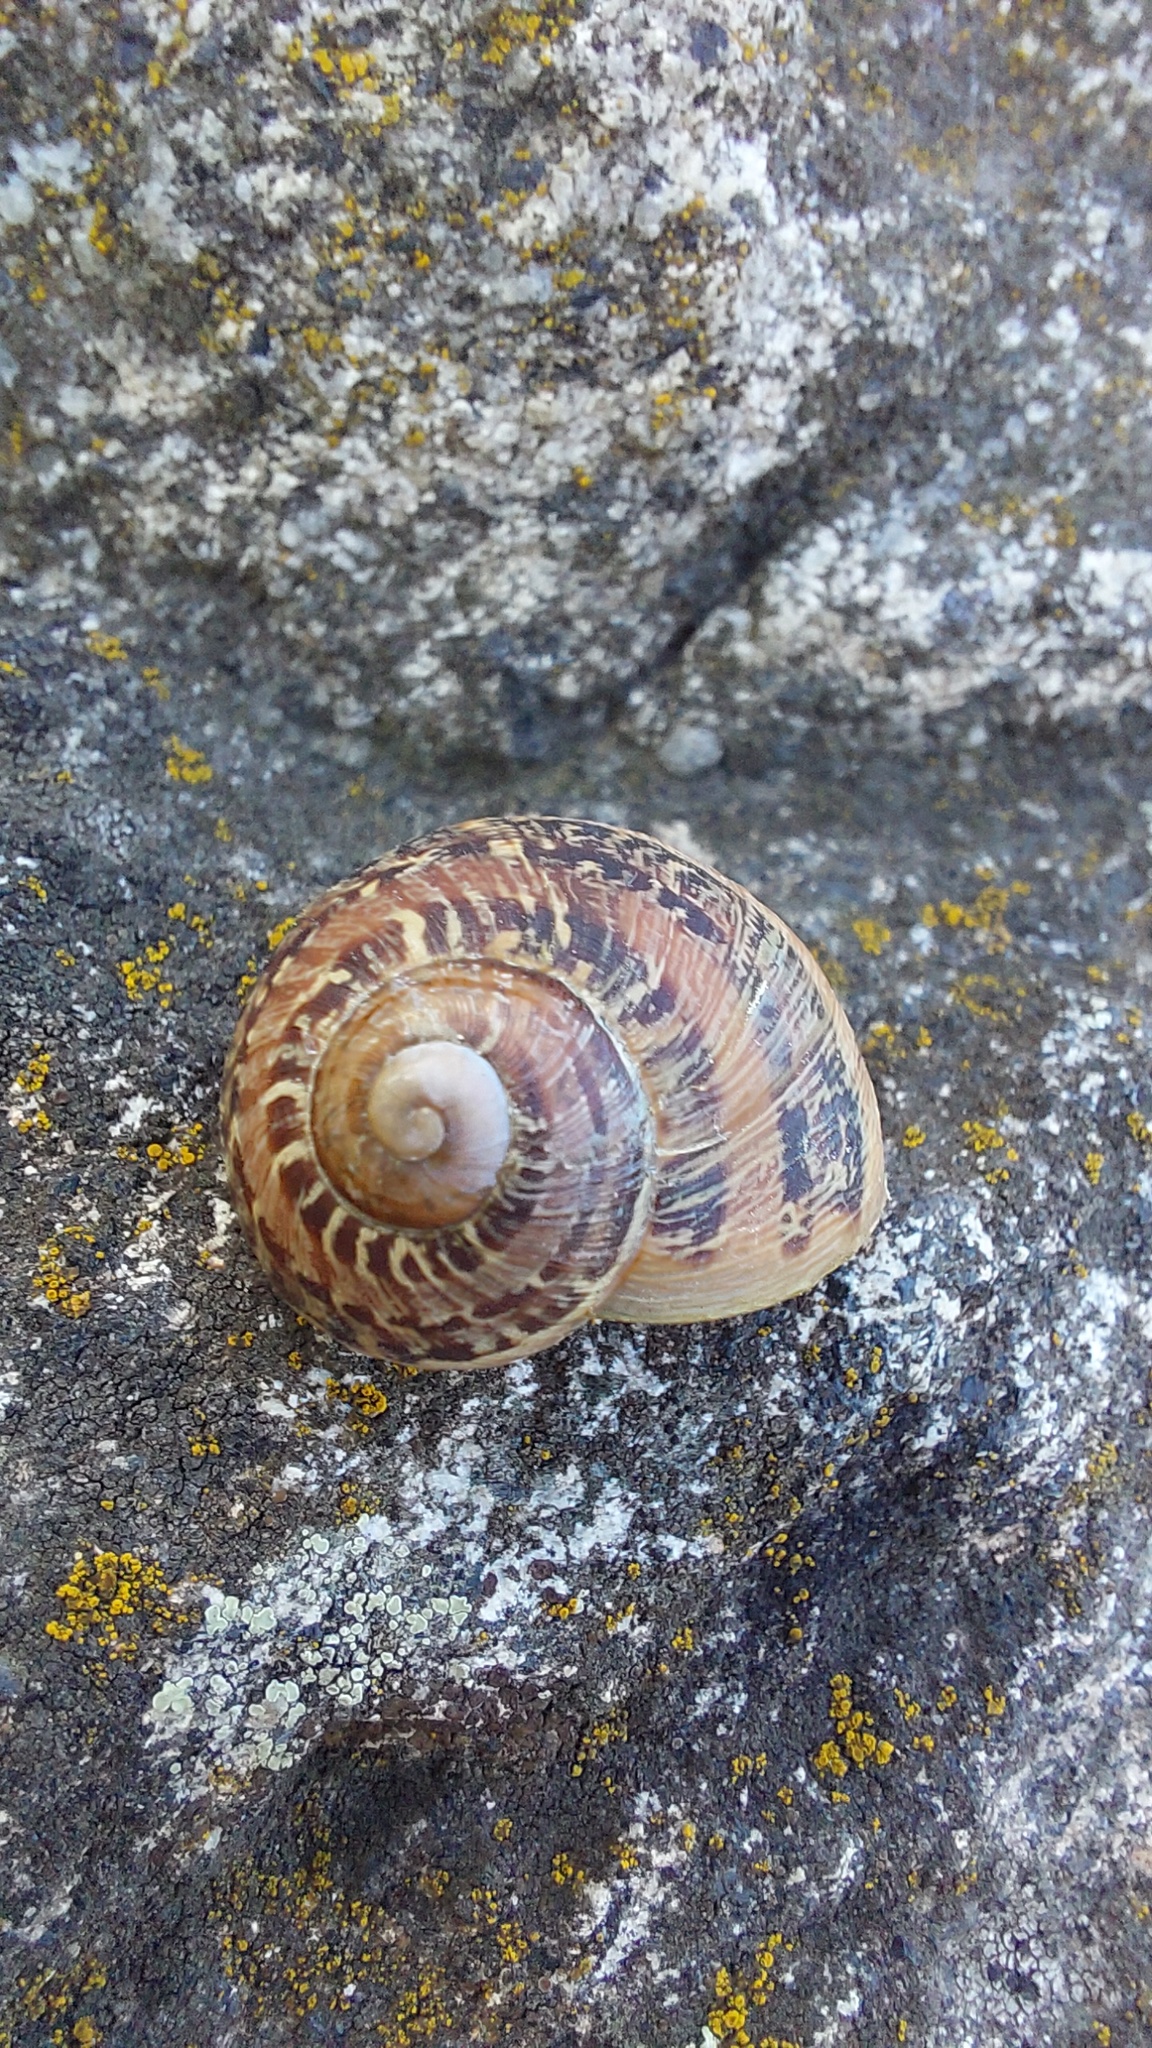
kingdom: Animalia
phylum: Mollusca
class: Gastropoda
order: Stylommatophora
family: Helicidae
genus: Cornu
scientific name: Cornu aspersum
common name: Brown garden snail
